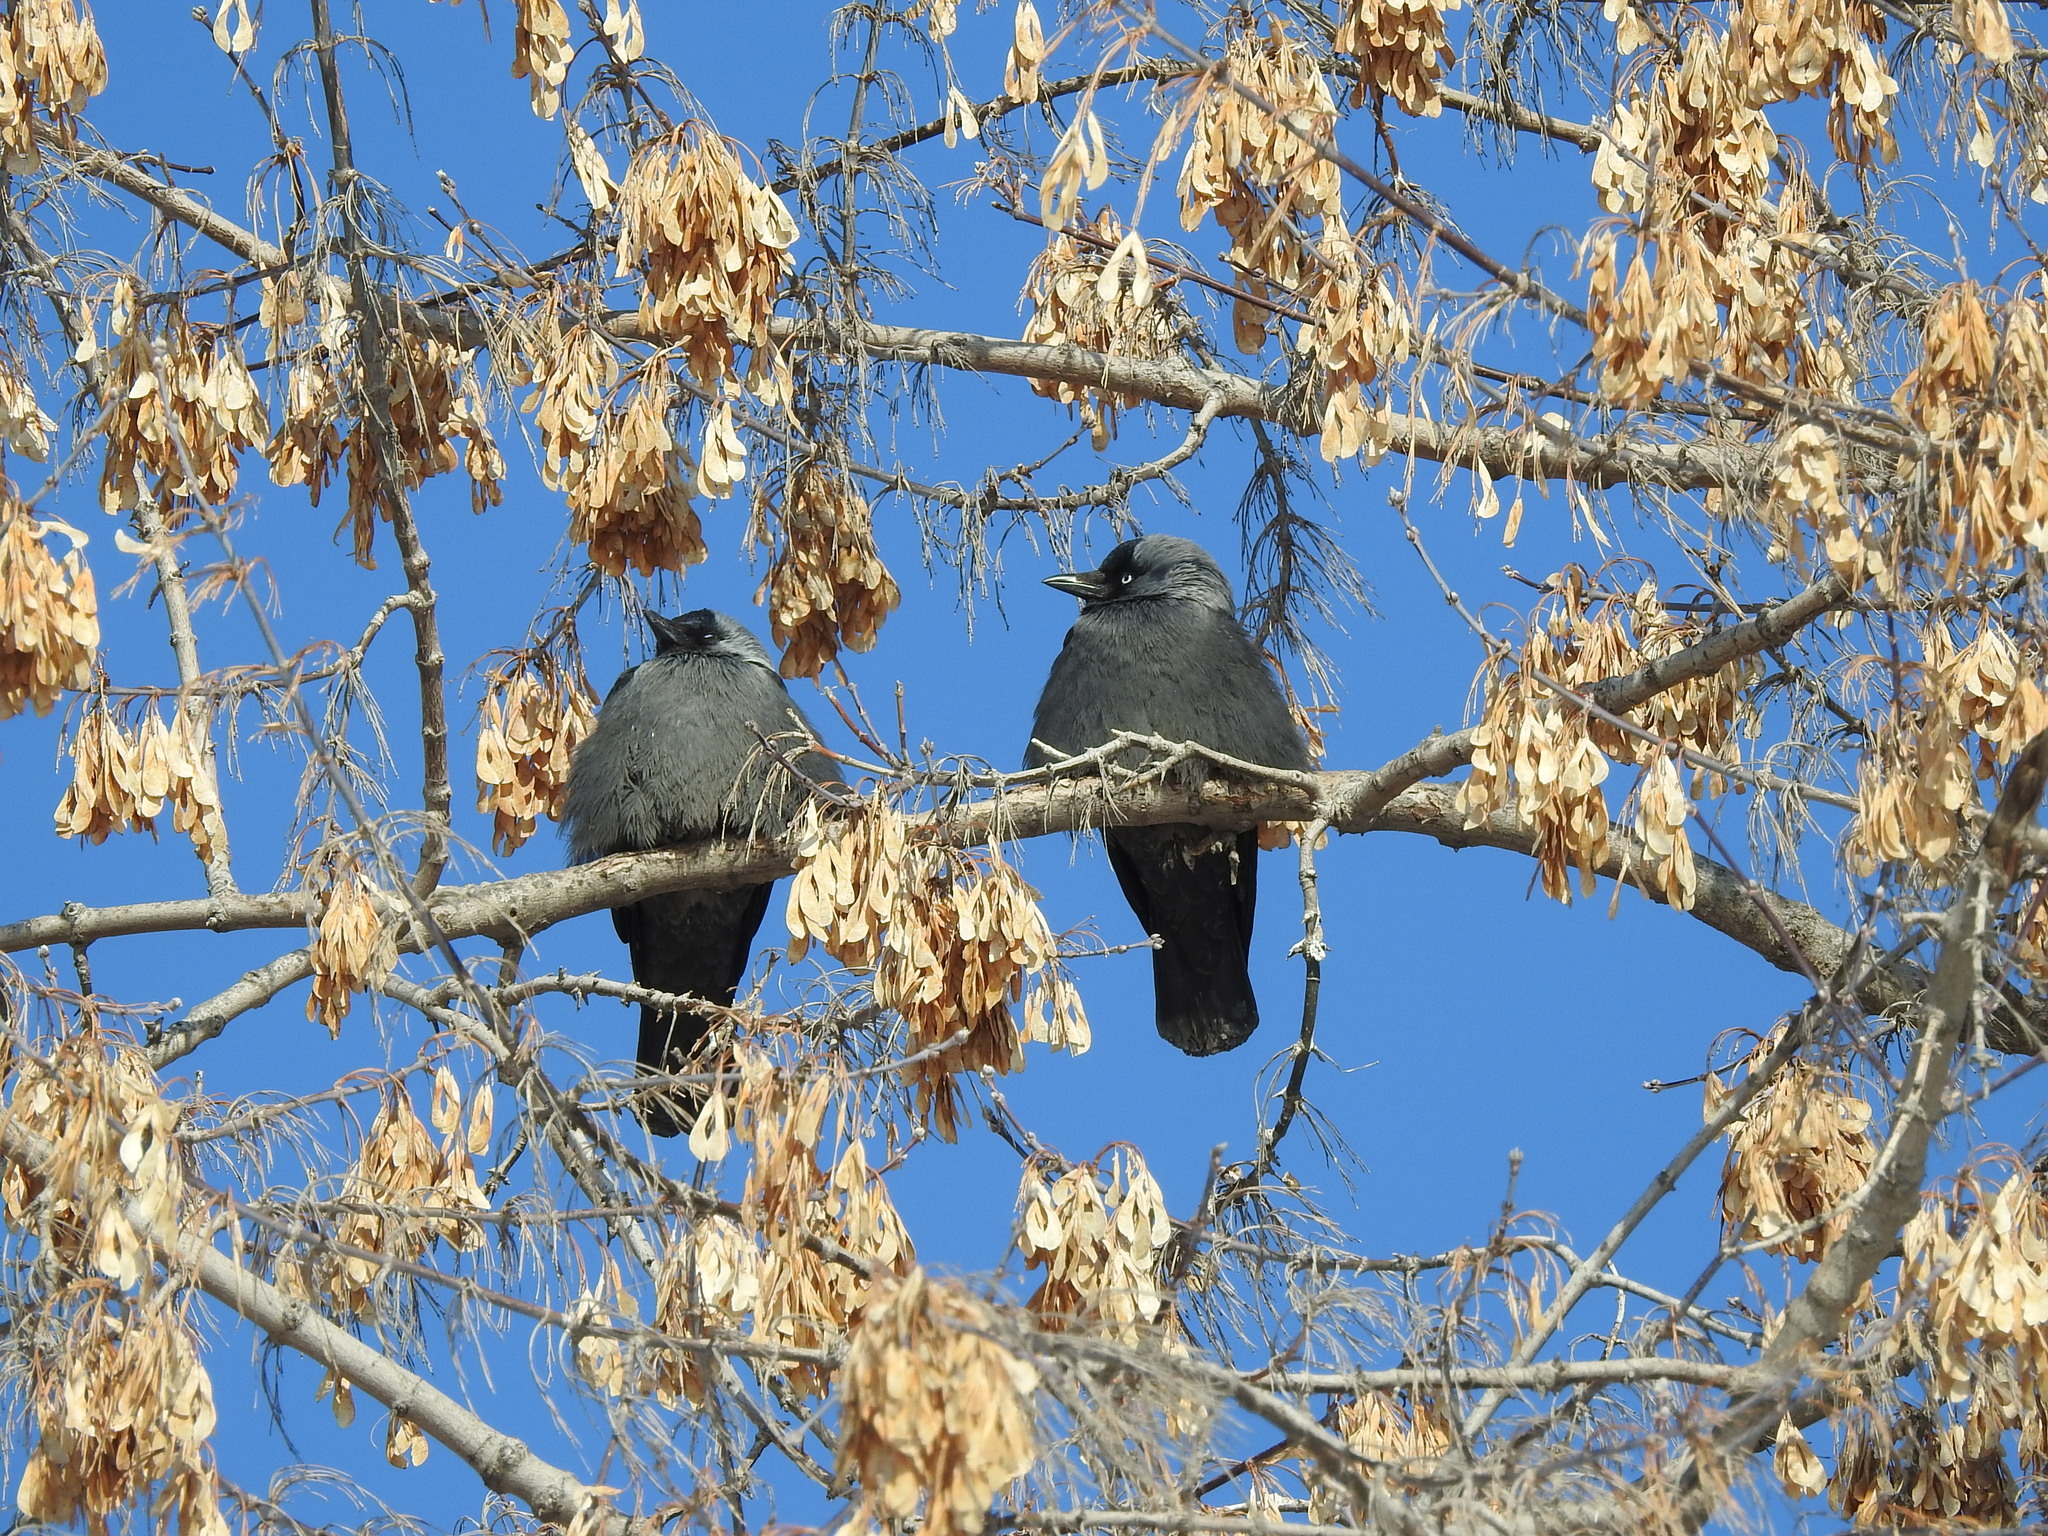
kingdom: Animalia
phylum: Chordata
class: Aves
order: Passeriformes
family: Corvidae
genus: Coloeus
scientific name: Coloeus monedula
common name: Western jackdaw
